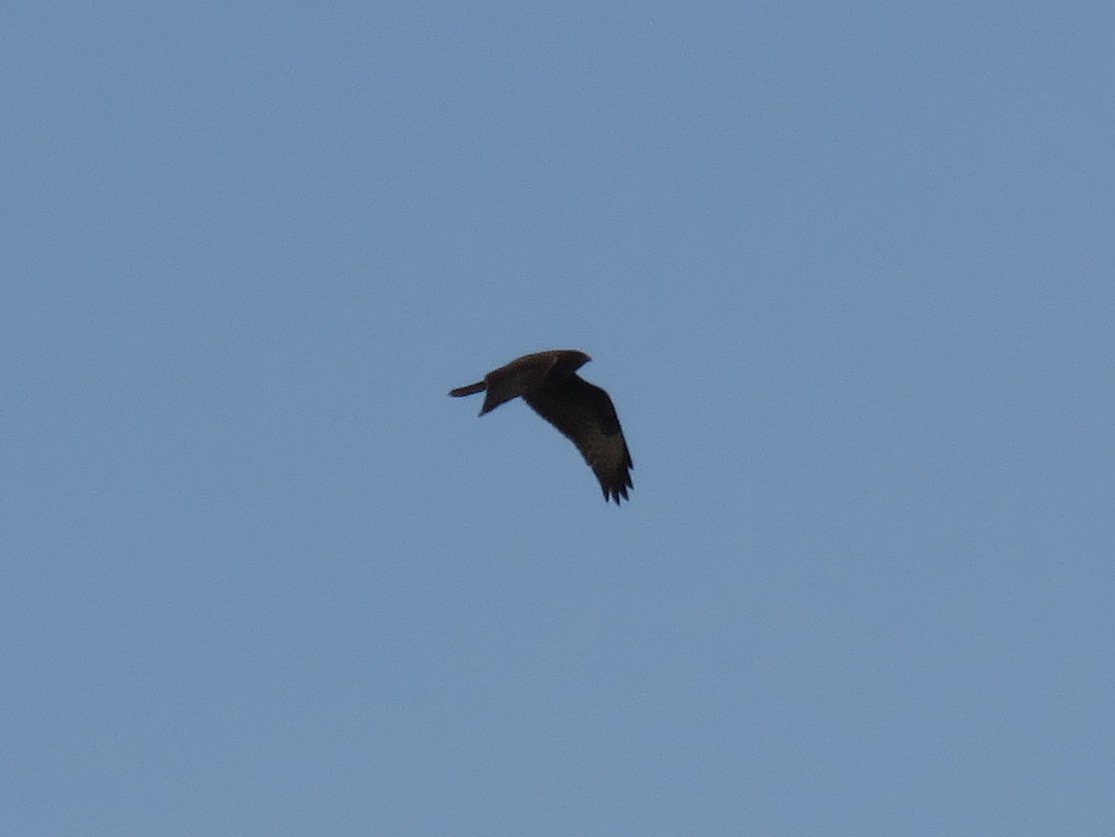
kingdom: Animalia
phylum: Chordata
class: Aves
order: Accipitriformes
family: Accipitridae
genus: Buteo
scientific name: Buteo buteo
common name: Common buzzard
